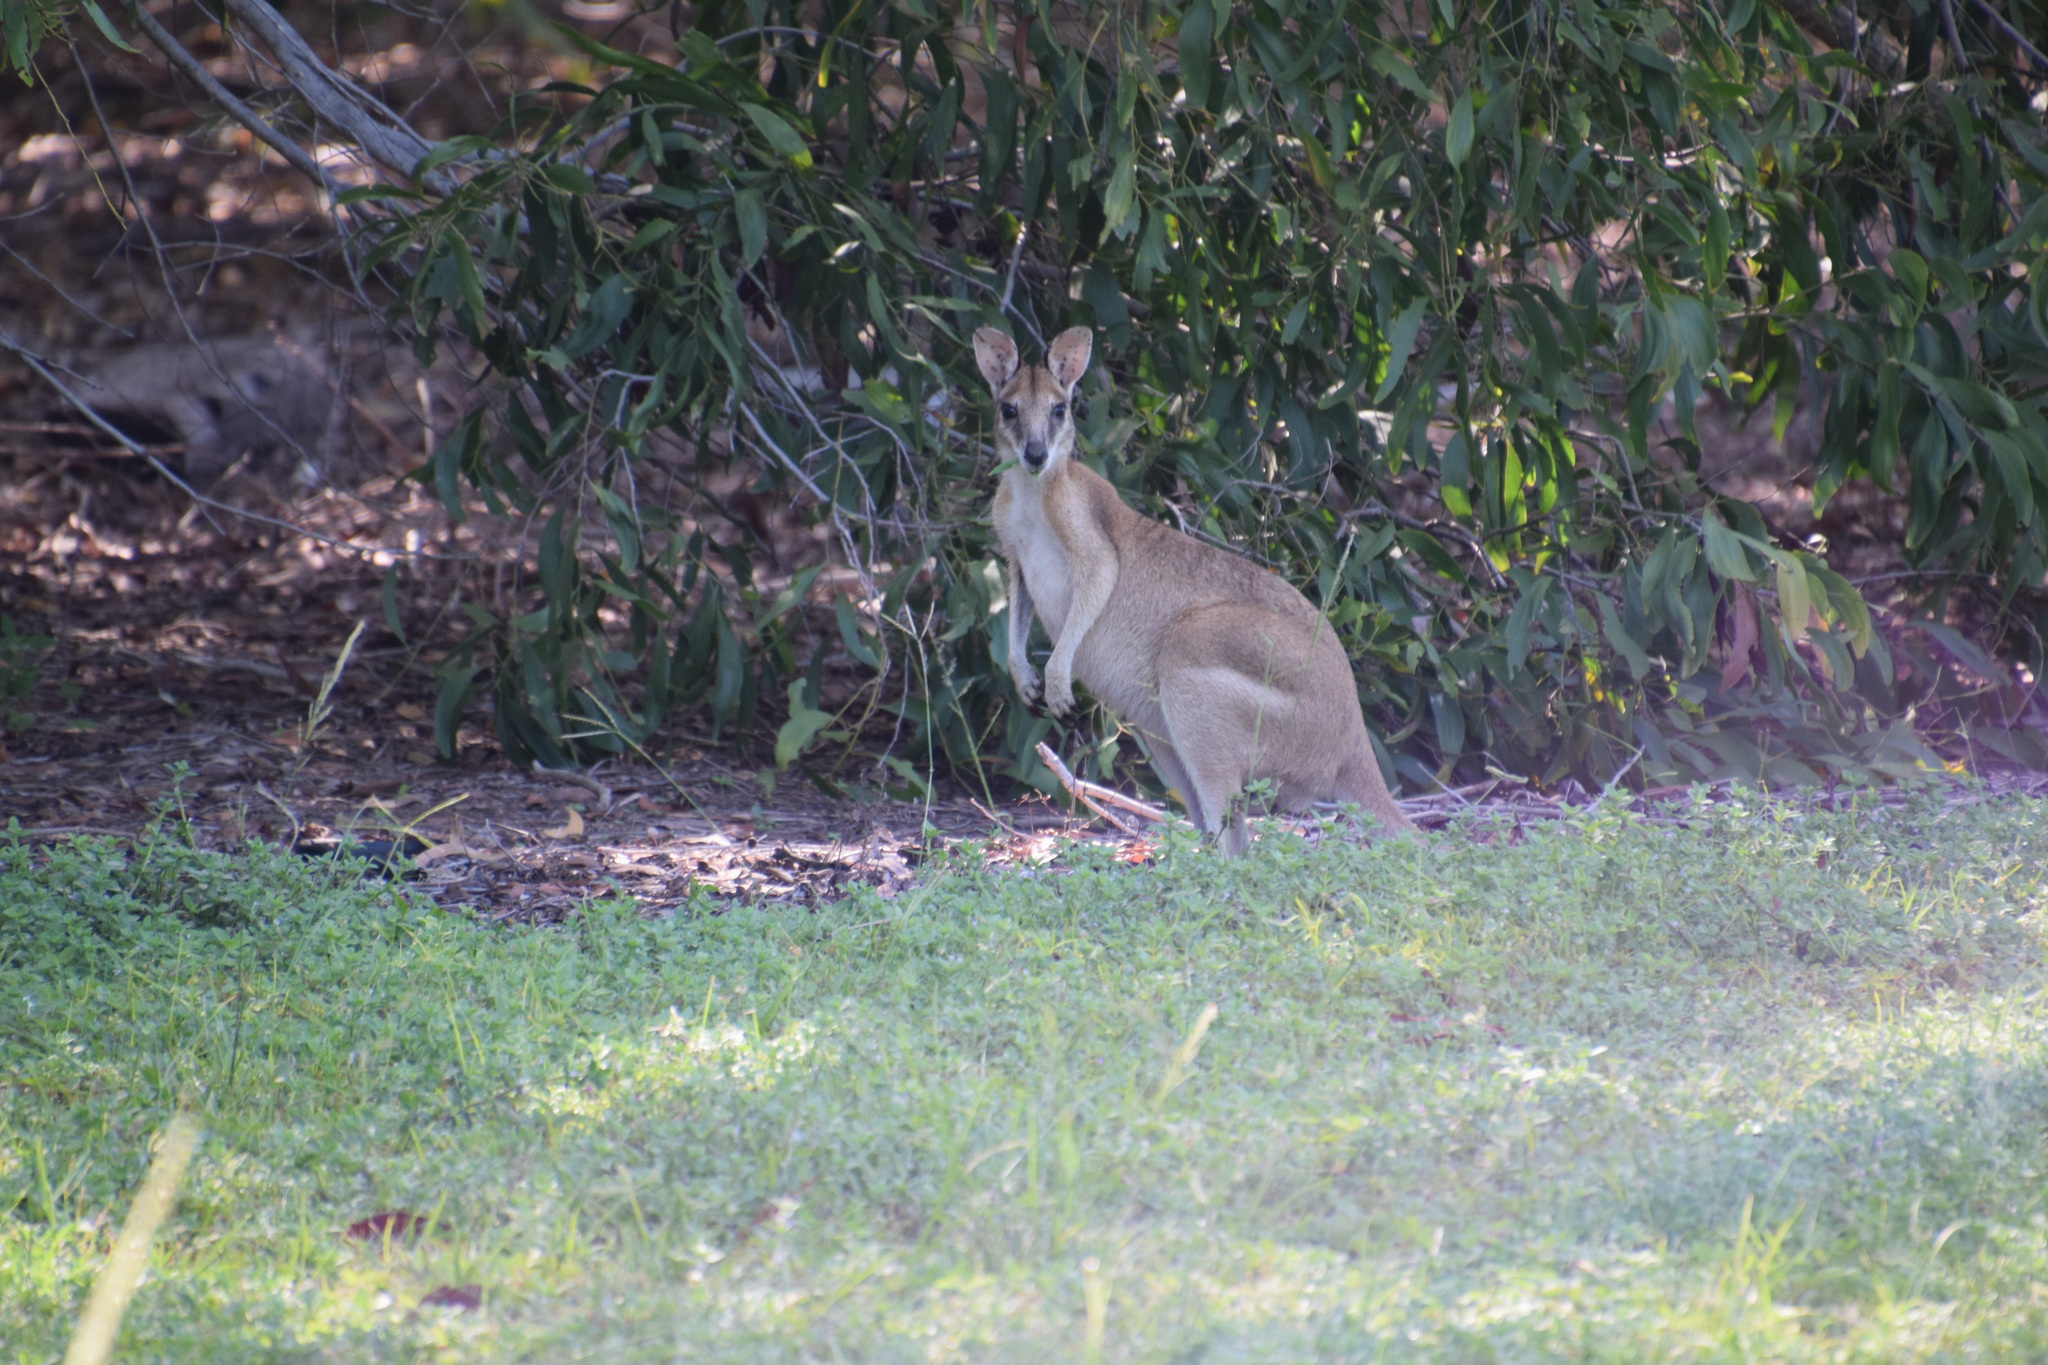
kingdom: Animalia
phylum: Chordata
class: Mammalia
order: Diprotodontia
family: Macropodidae
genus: Macropus
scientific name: Macropus agilis
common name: Agile wallaby
